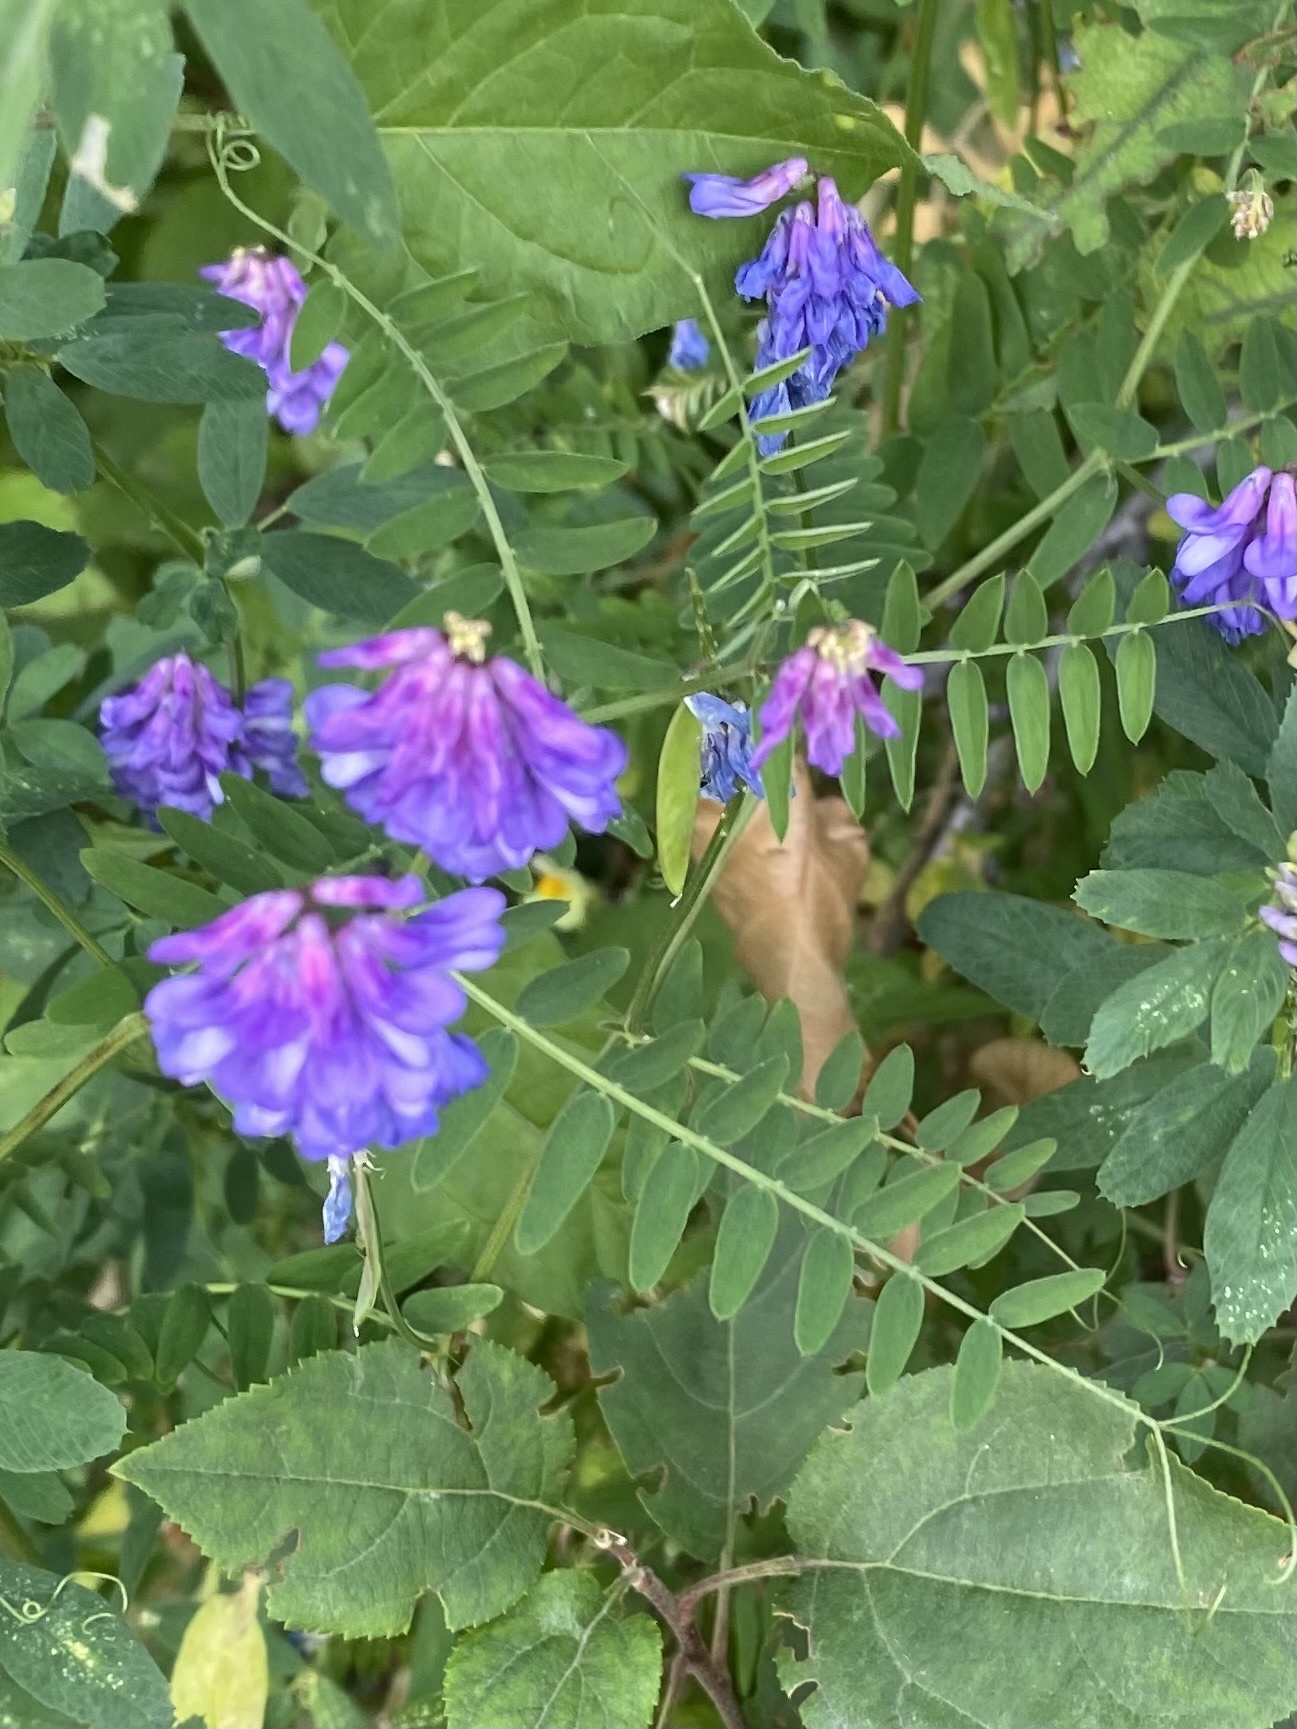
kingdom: Plantae
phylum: Tracheophyta
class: Magnoliopsida
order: Fabales
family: Fabaceae
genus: Vicia
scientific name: Vicia cracca
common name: Bird vetch
